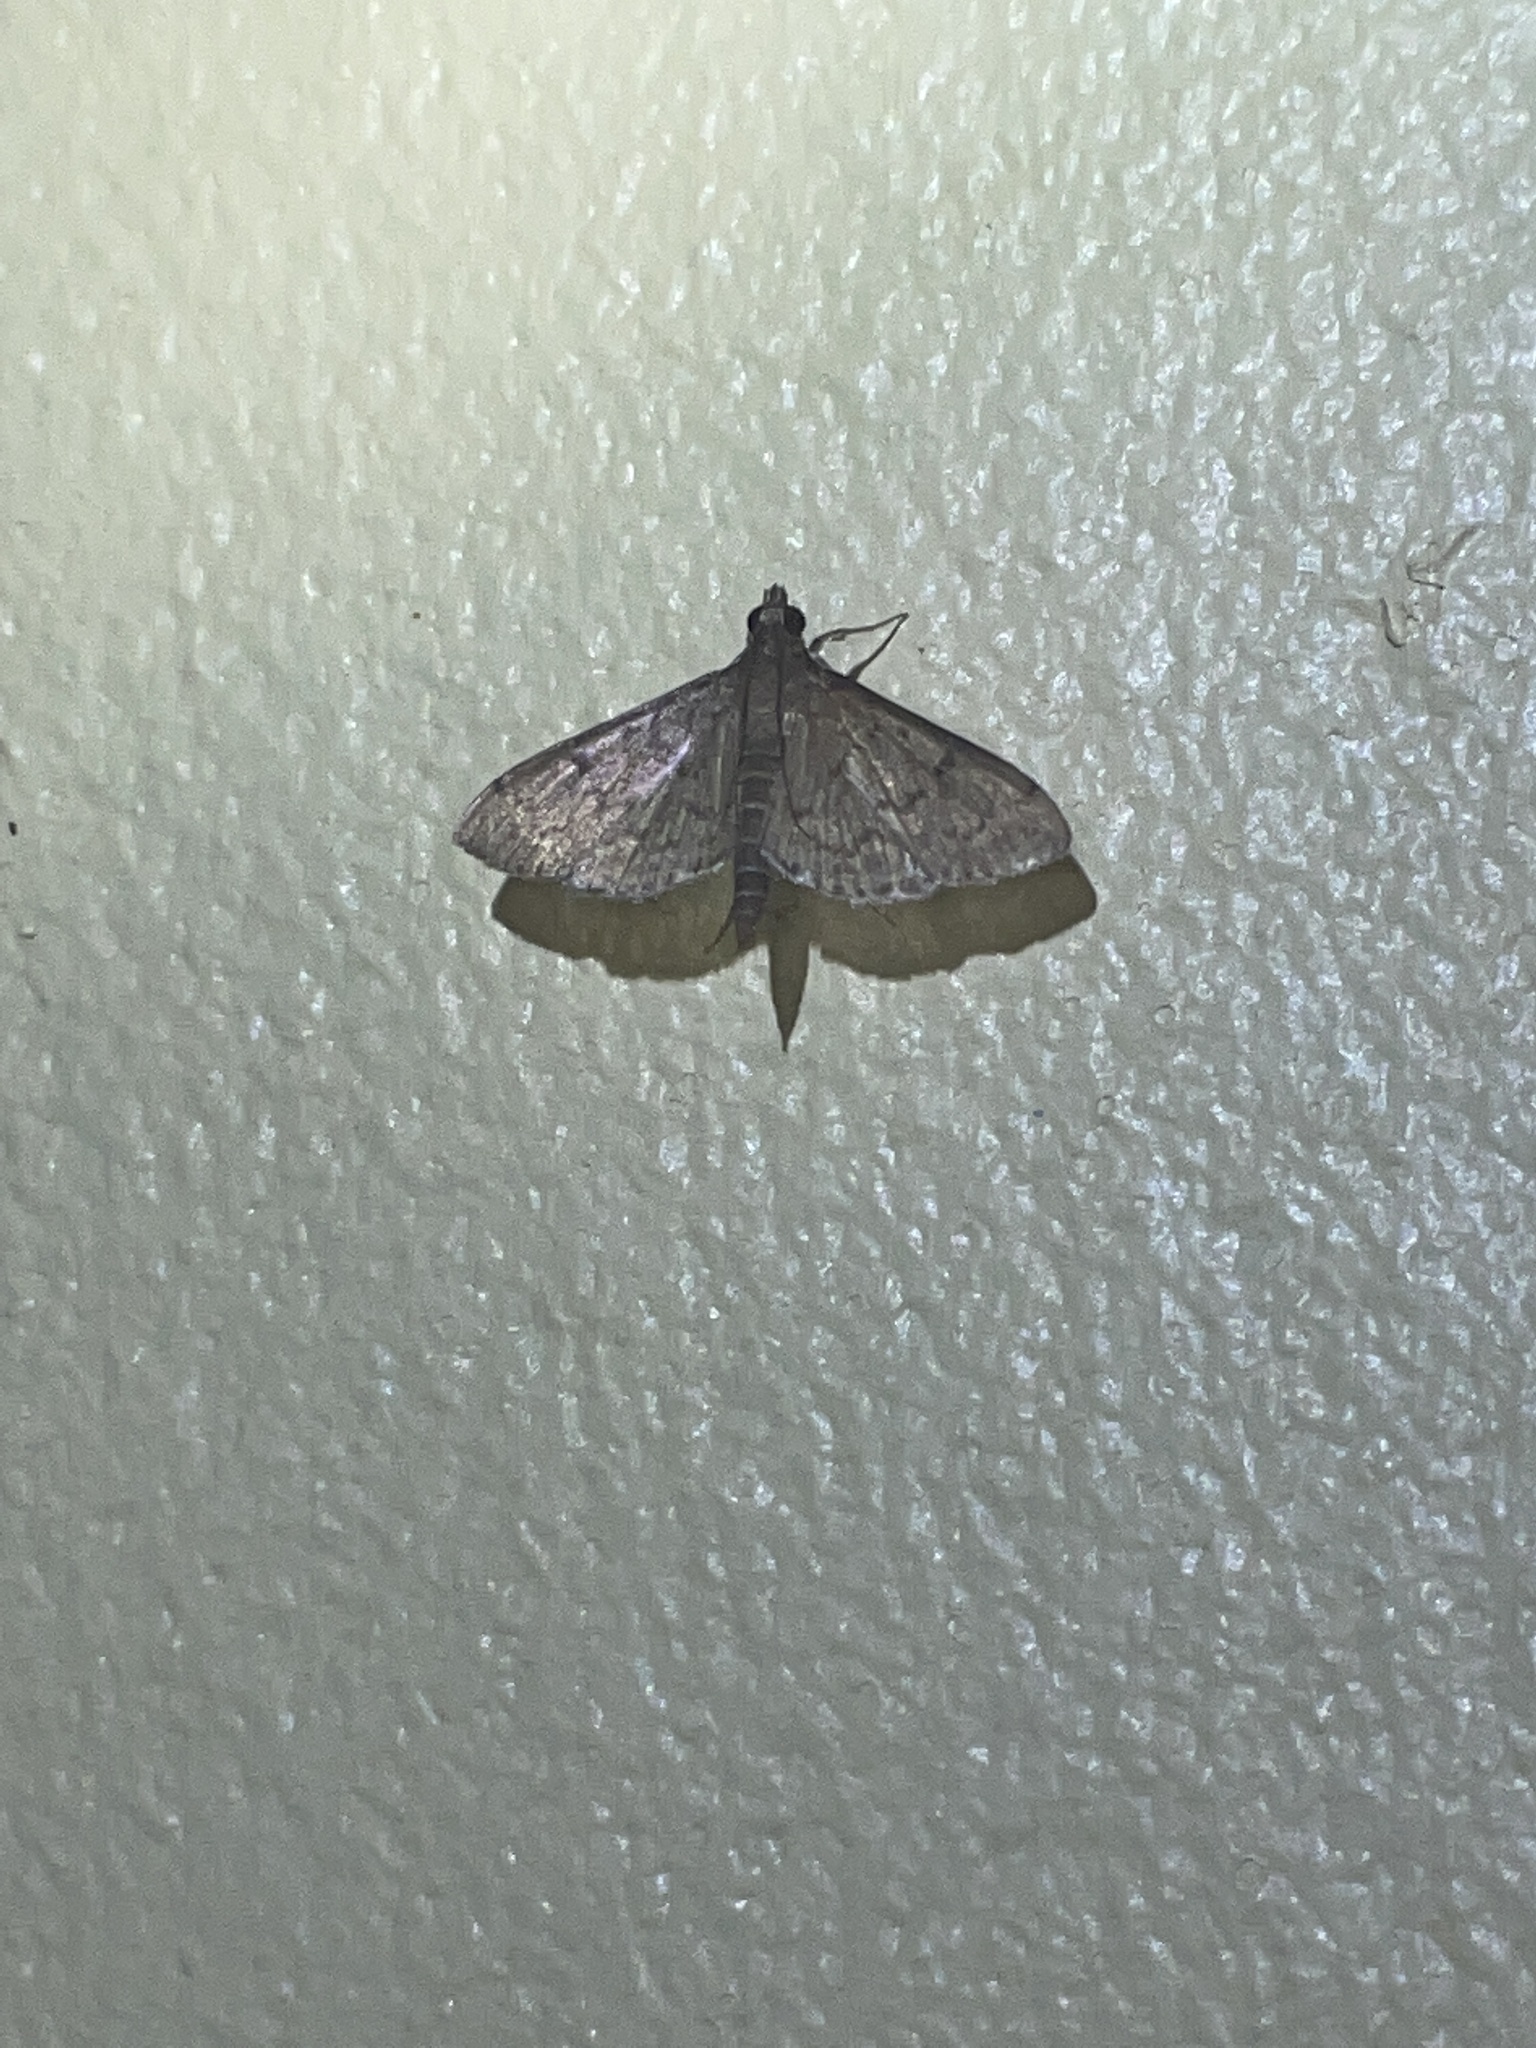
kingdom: Animalia
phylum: Arthropoda
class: Insecta
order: Lepidoptera
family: Crambidae
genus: Herpetogramma
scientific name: Herpetogramma phaeopteralis
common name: Dusky herpetogramma moth
